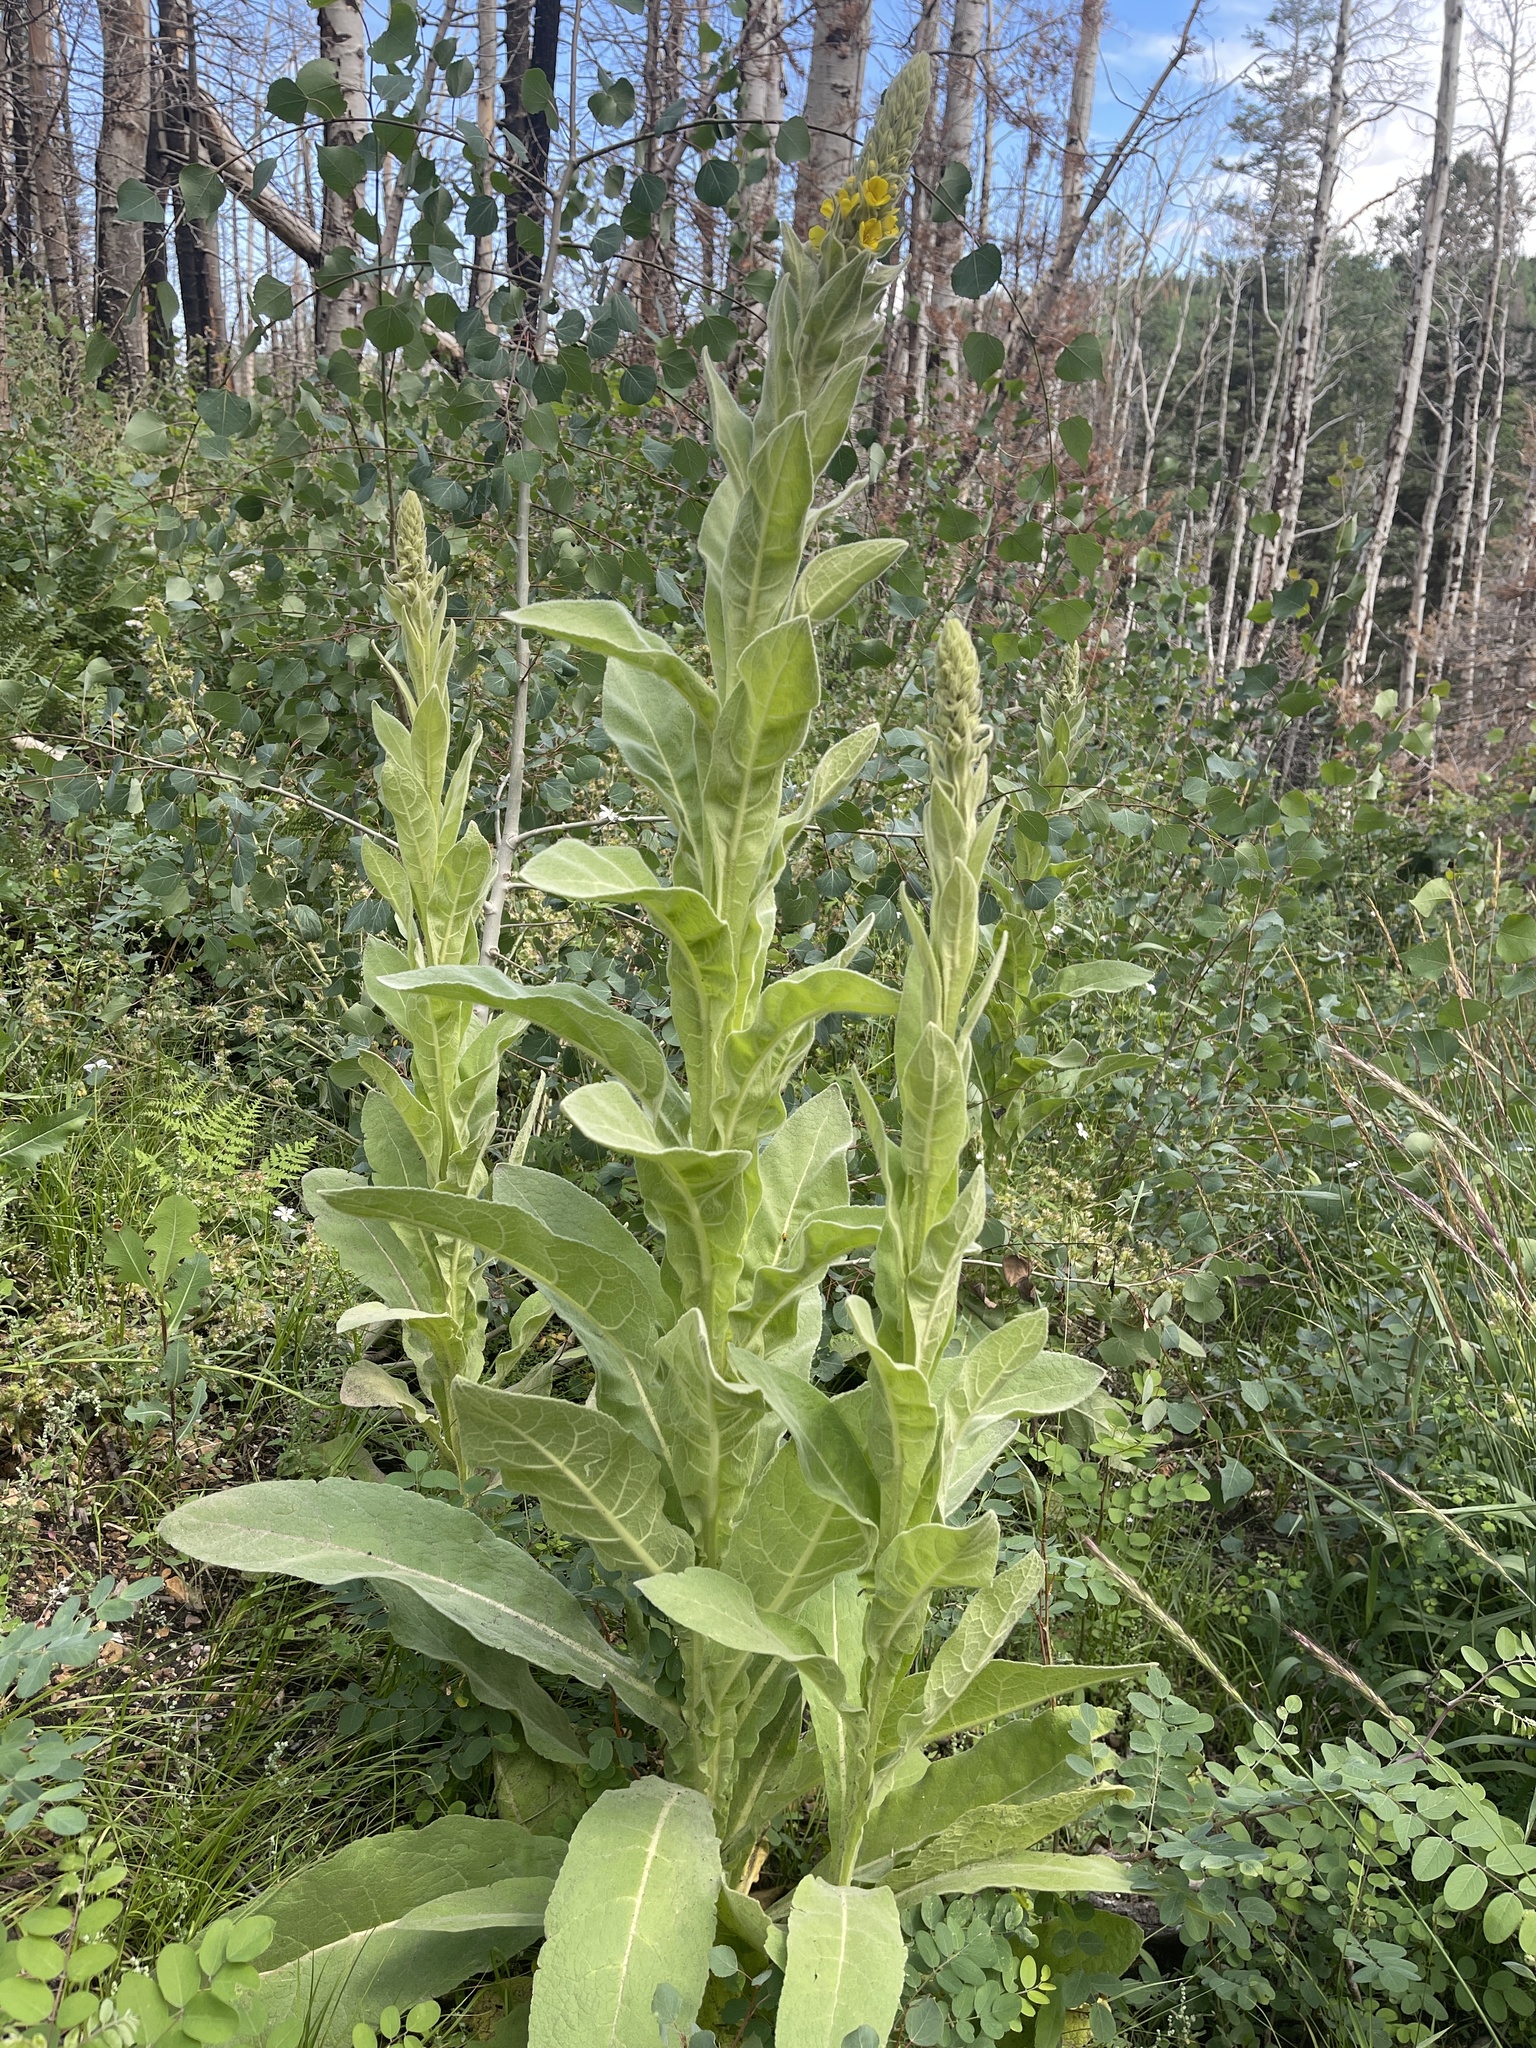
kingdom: Plantae
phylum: Tracheophyta
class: Magnoliopsida
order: Lamiales
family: Scrophulariaceae
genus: Verbascum
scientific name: Verbascum thapsus
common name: Common mullein
